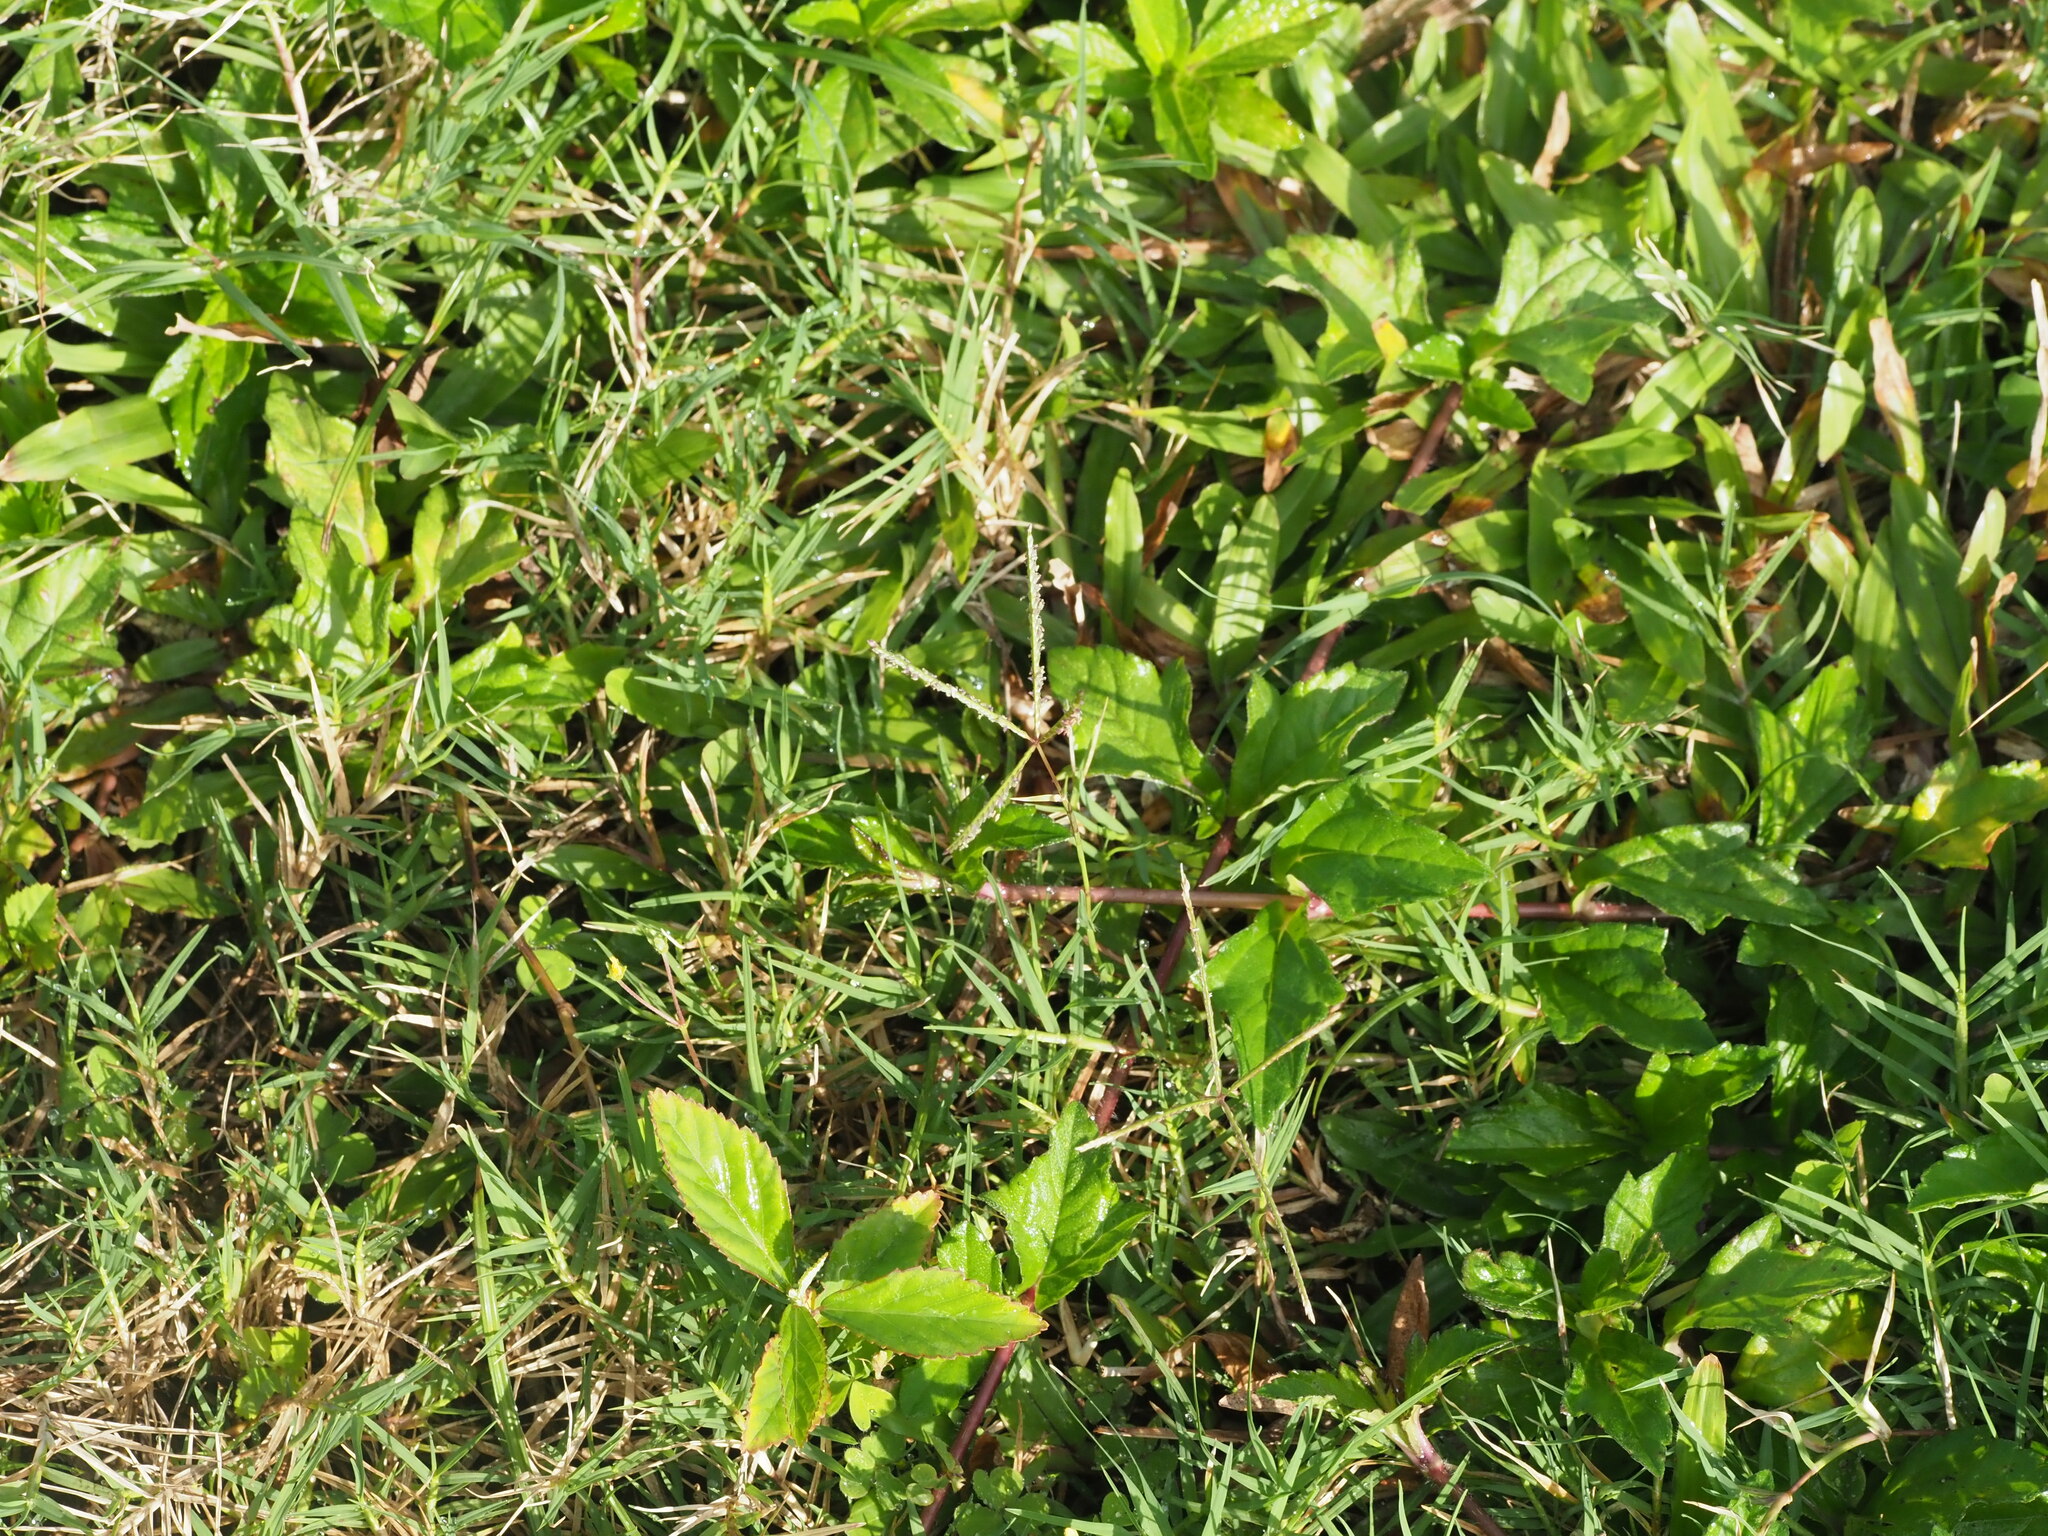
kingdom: Plantae
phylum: Tracheophyta
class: Liliopsida
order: Poales
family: Poaceae
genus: Cynodon
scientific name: Cynodon dactylon
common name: Bermuda grass
